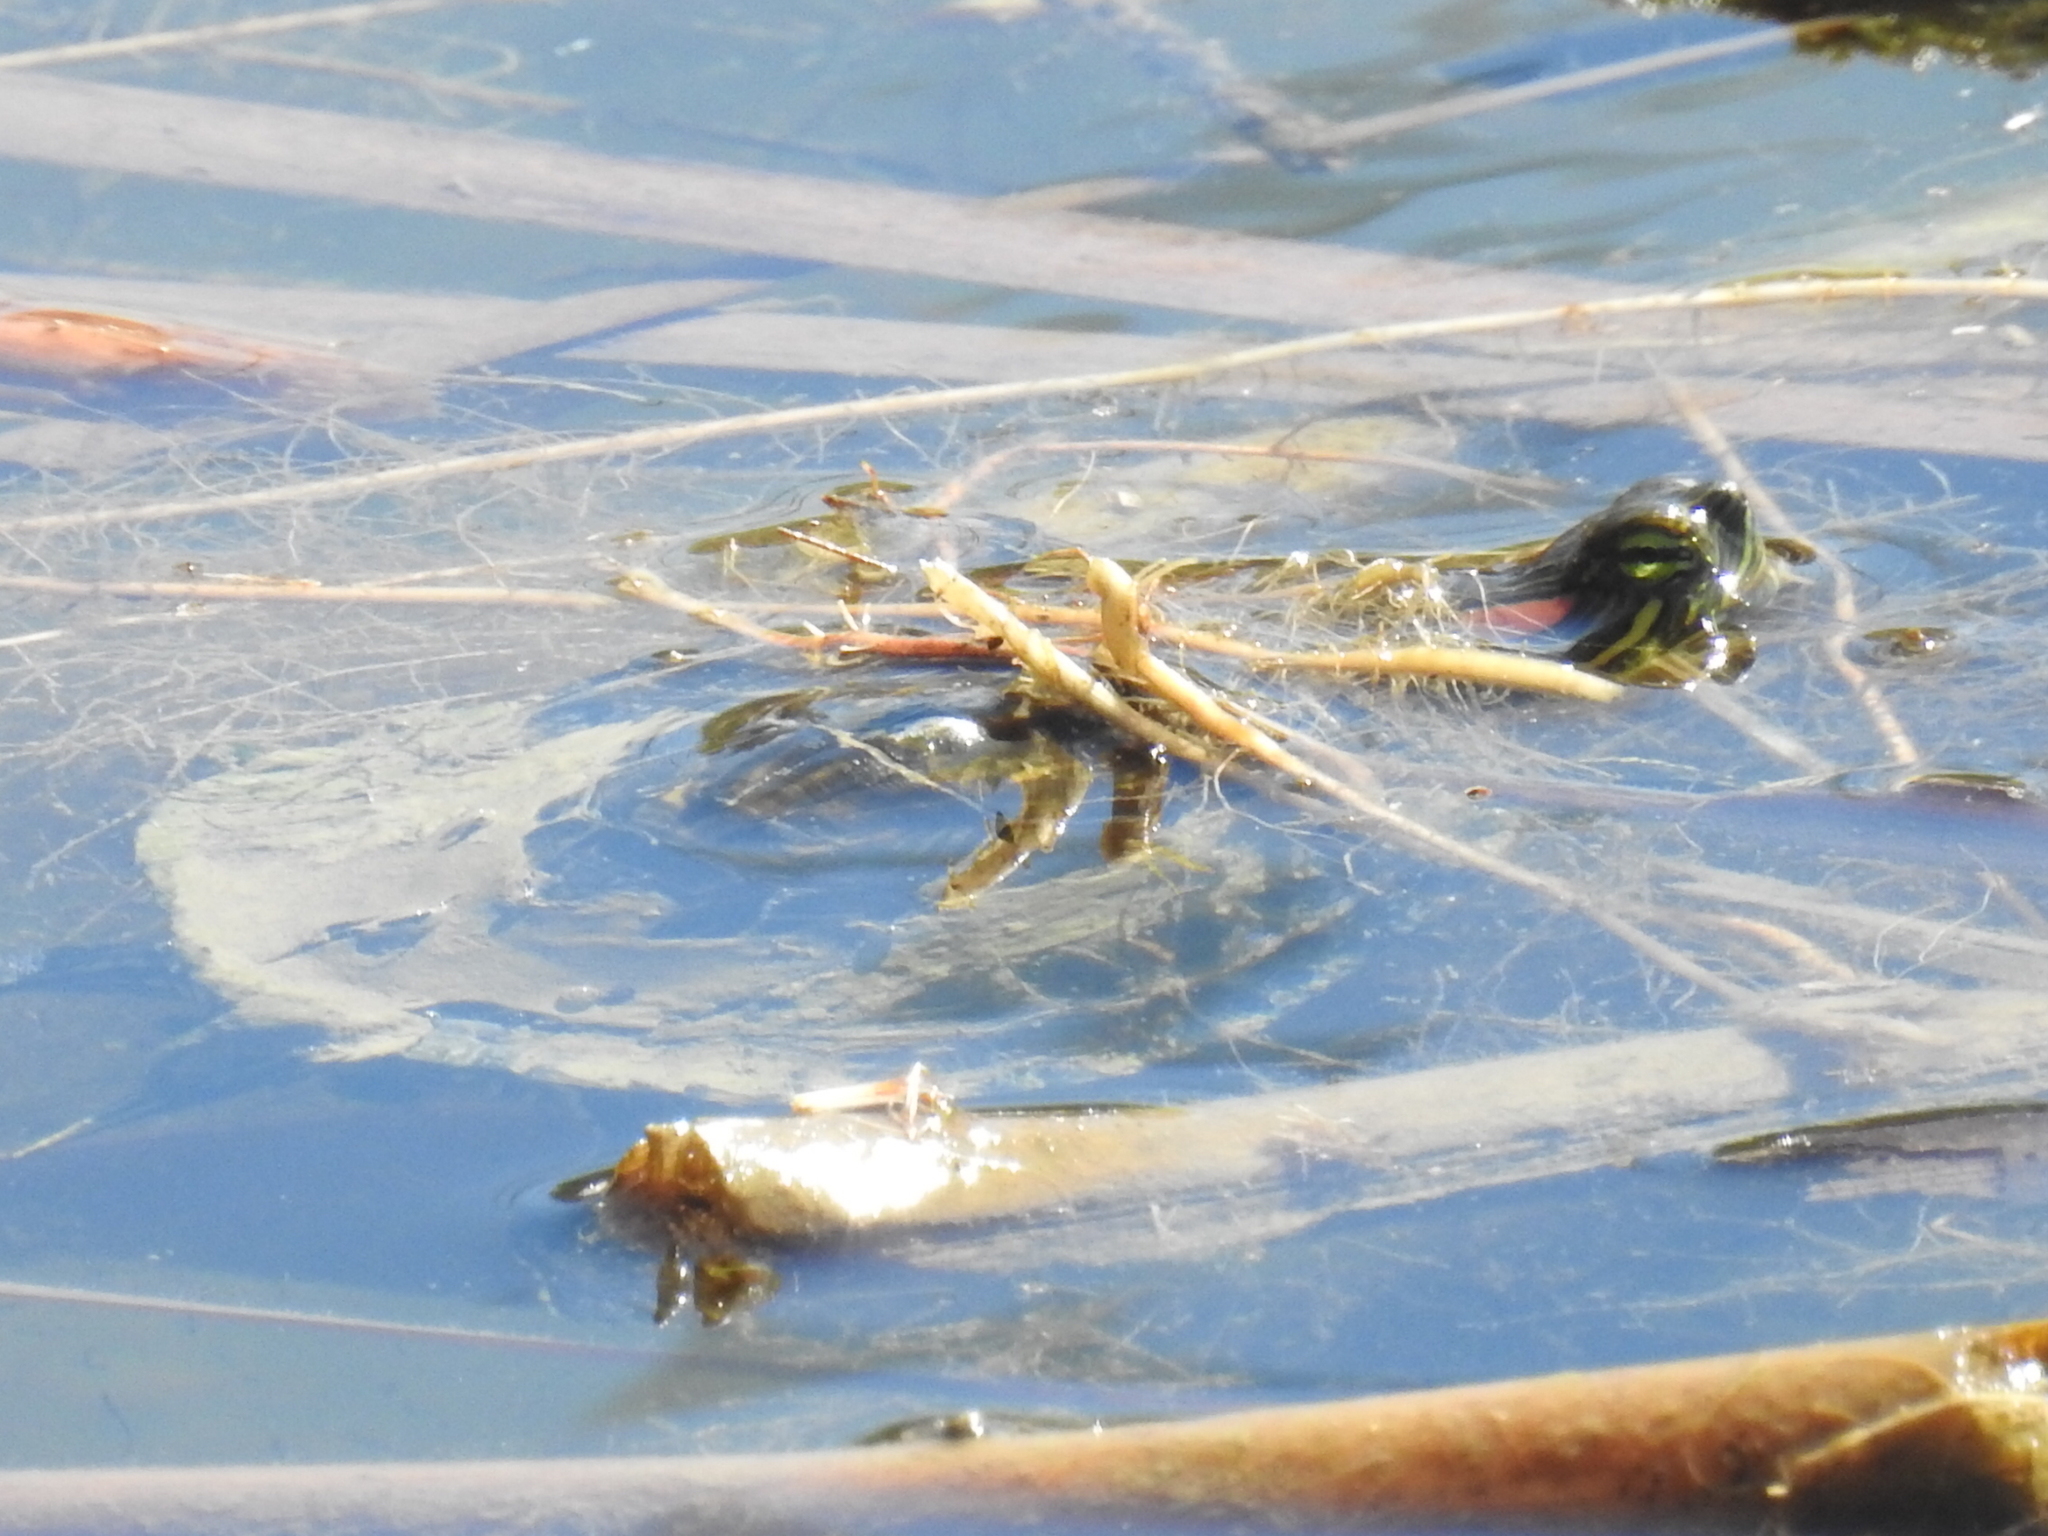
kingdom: Animalia
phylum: Chordata
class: Testudines
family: Emydidae
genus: Trachemys
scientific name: Trachemys scripta
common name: Slider
